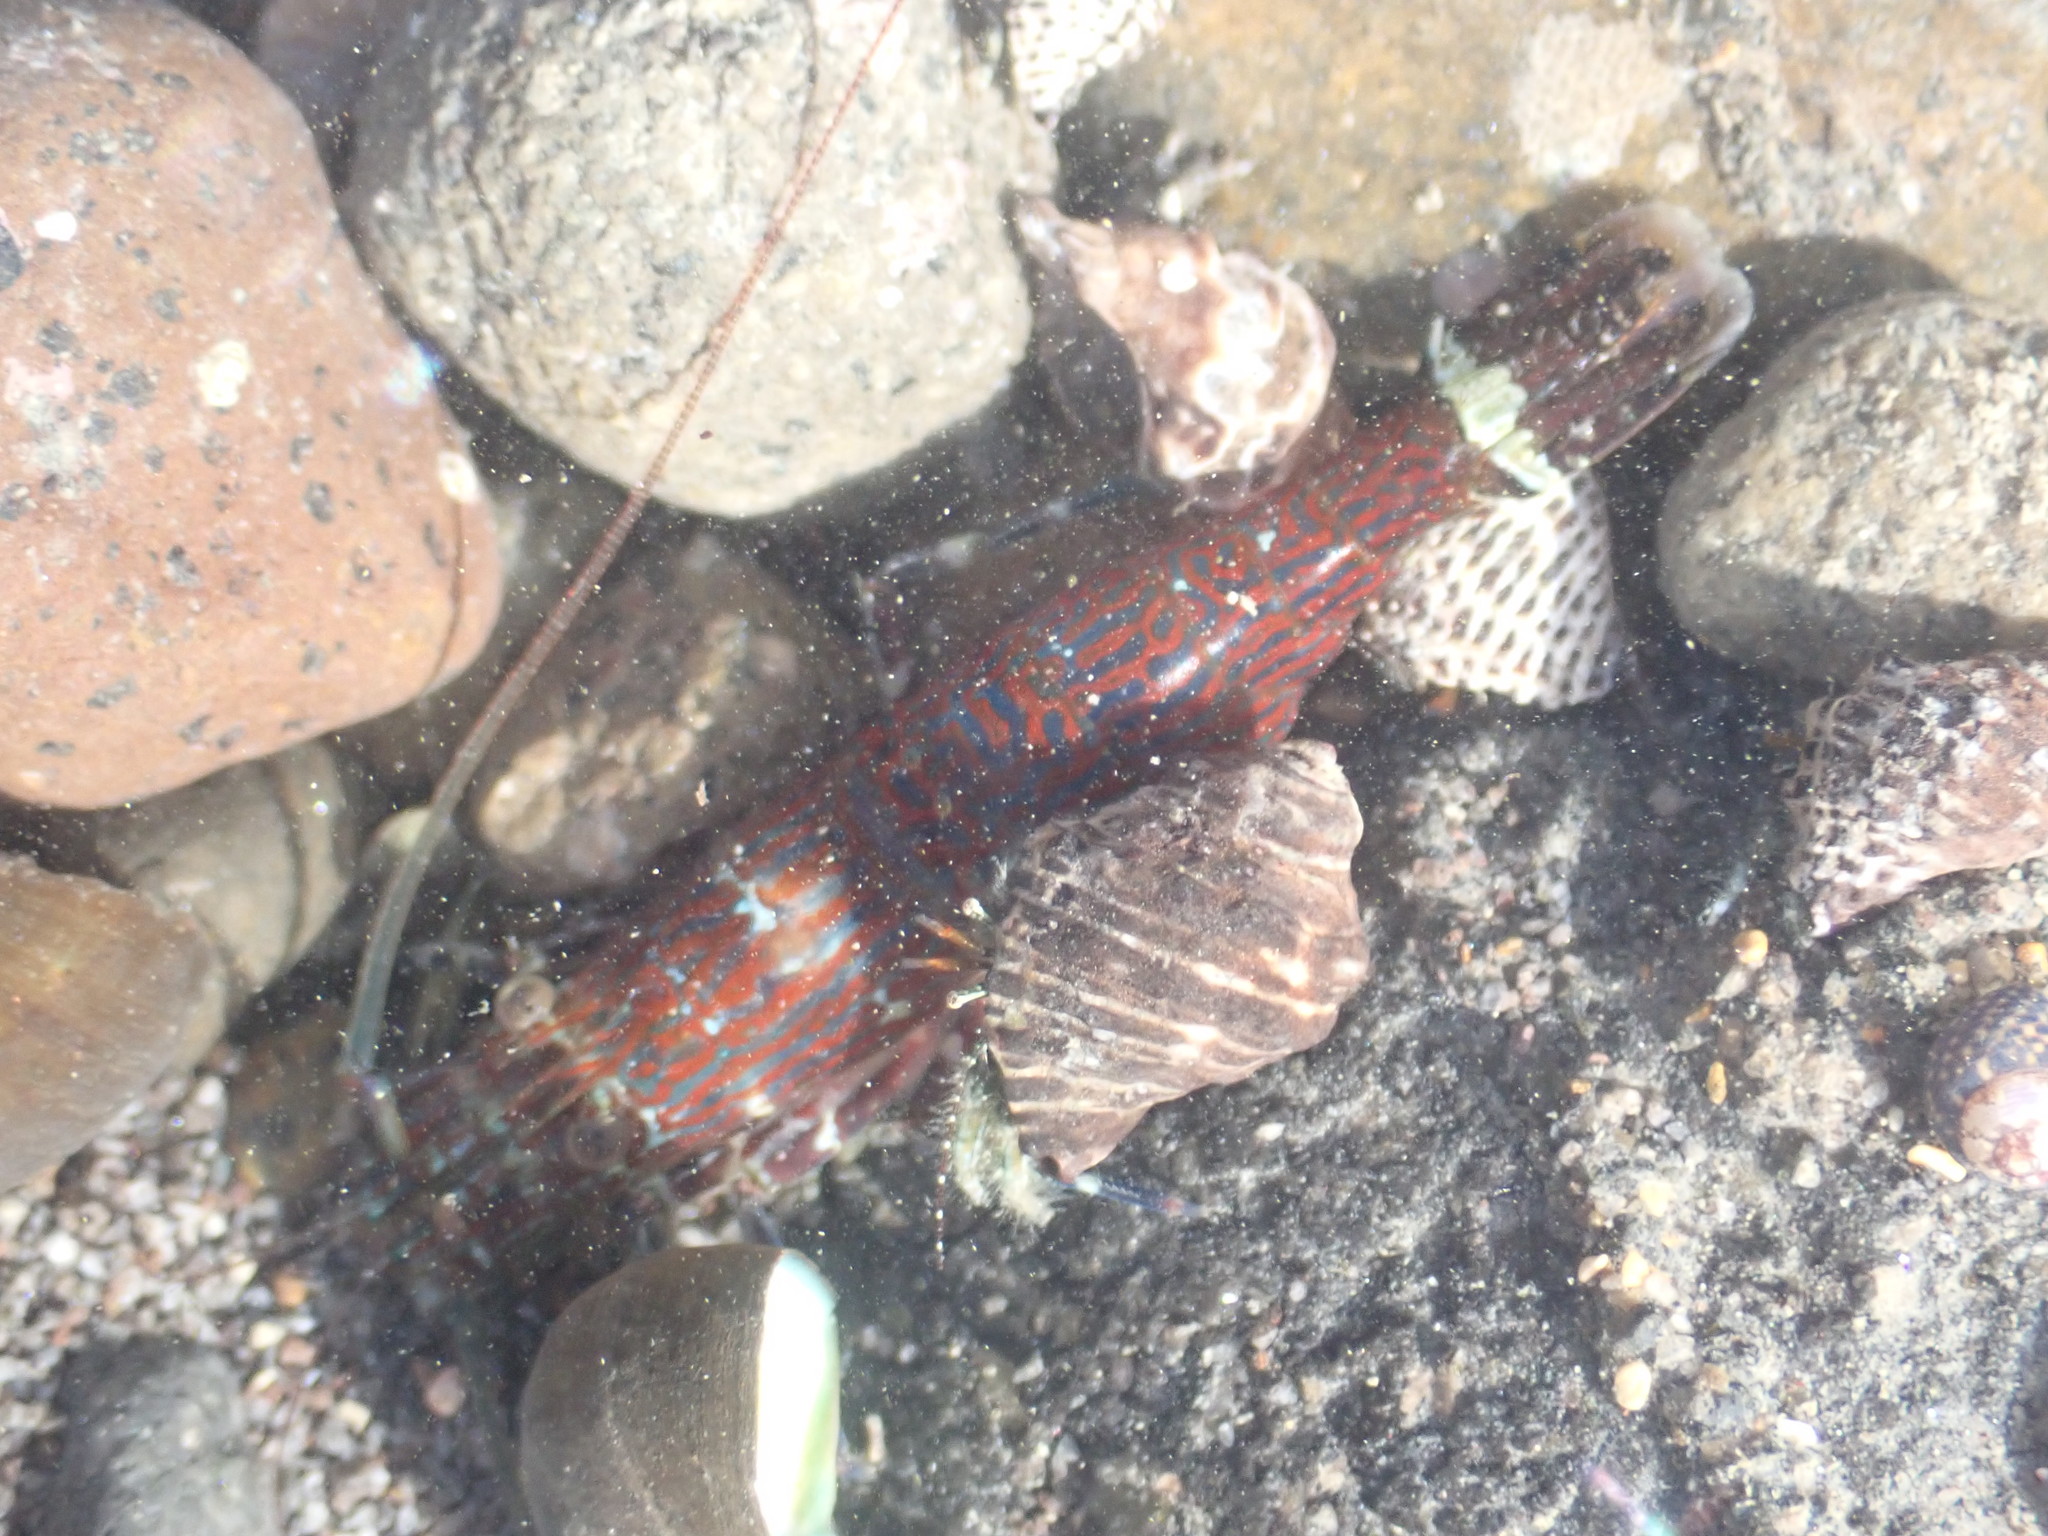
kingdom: Animalia
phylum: Arthropoda
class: Malacostraca
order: Decapoda
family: Hippolytidae
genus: Alope
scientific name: Alope spinifrons
